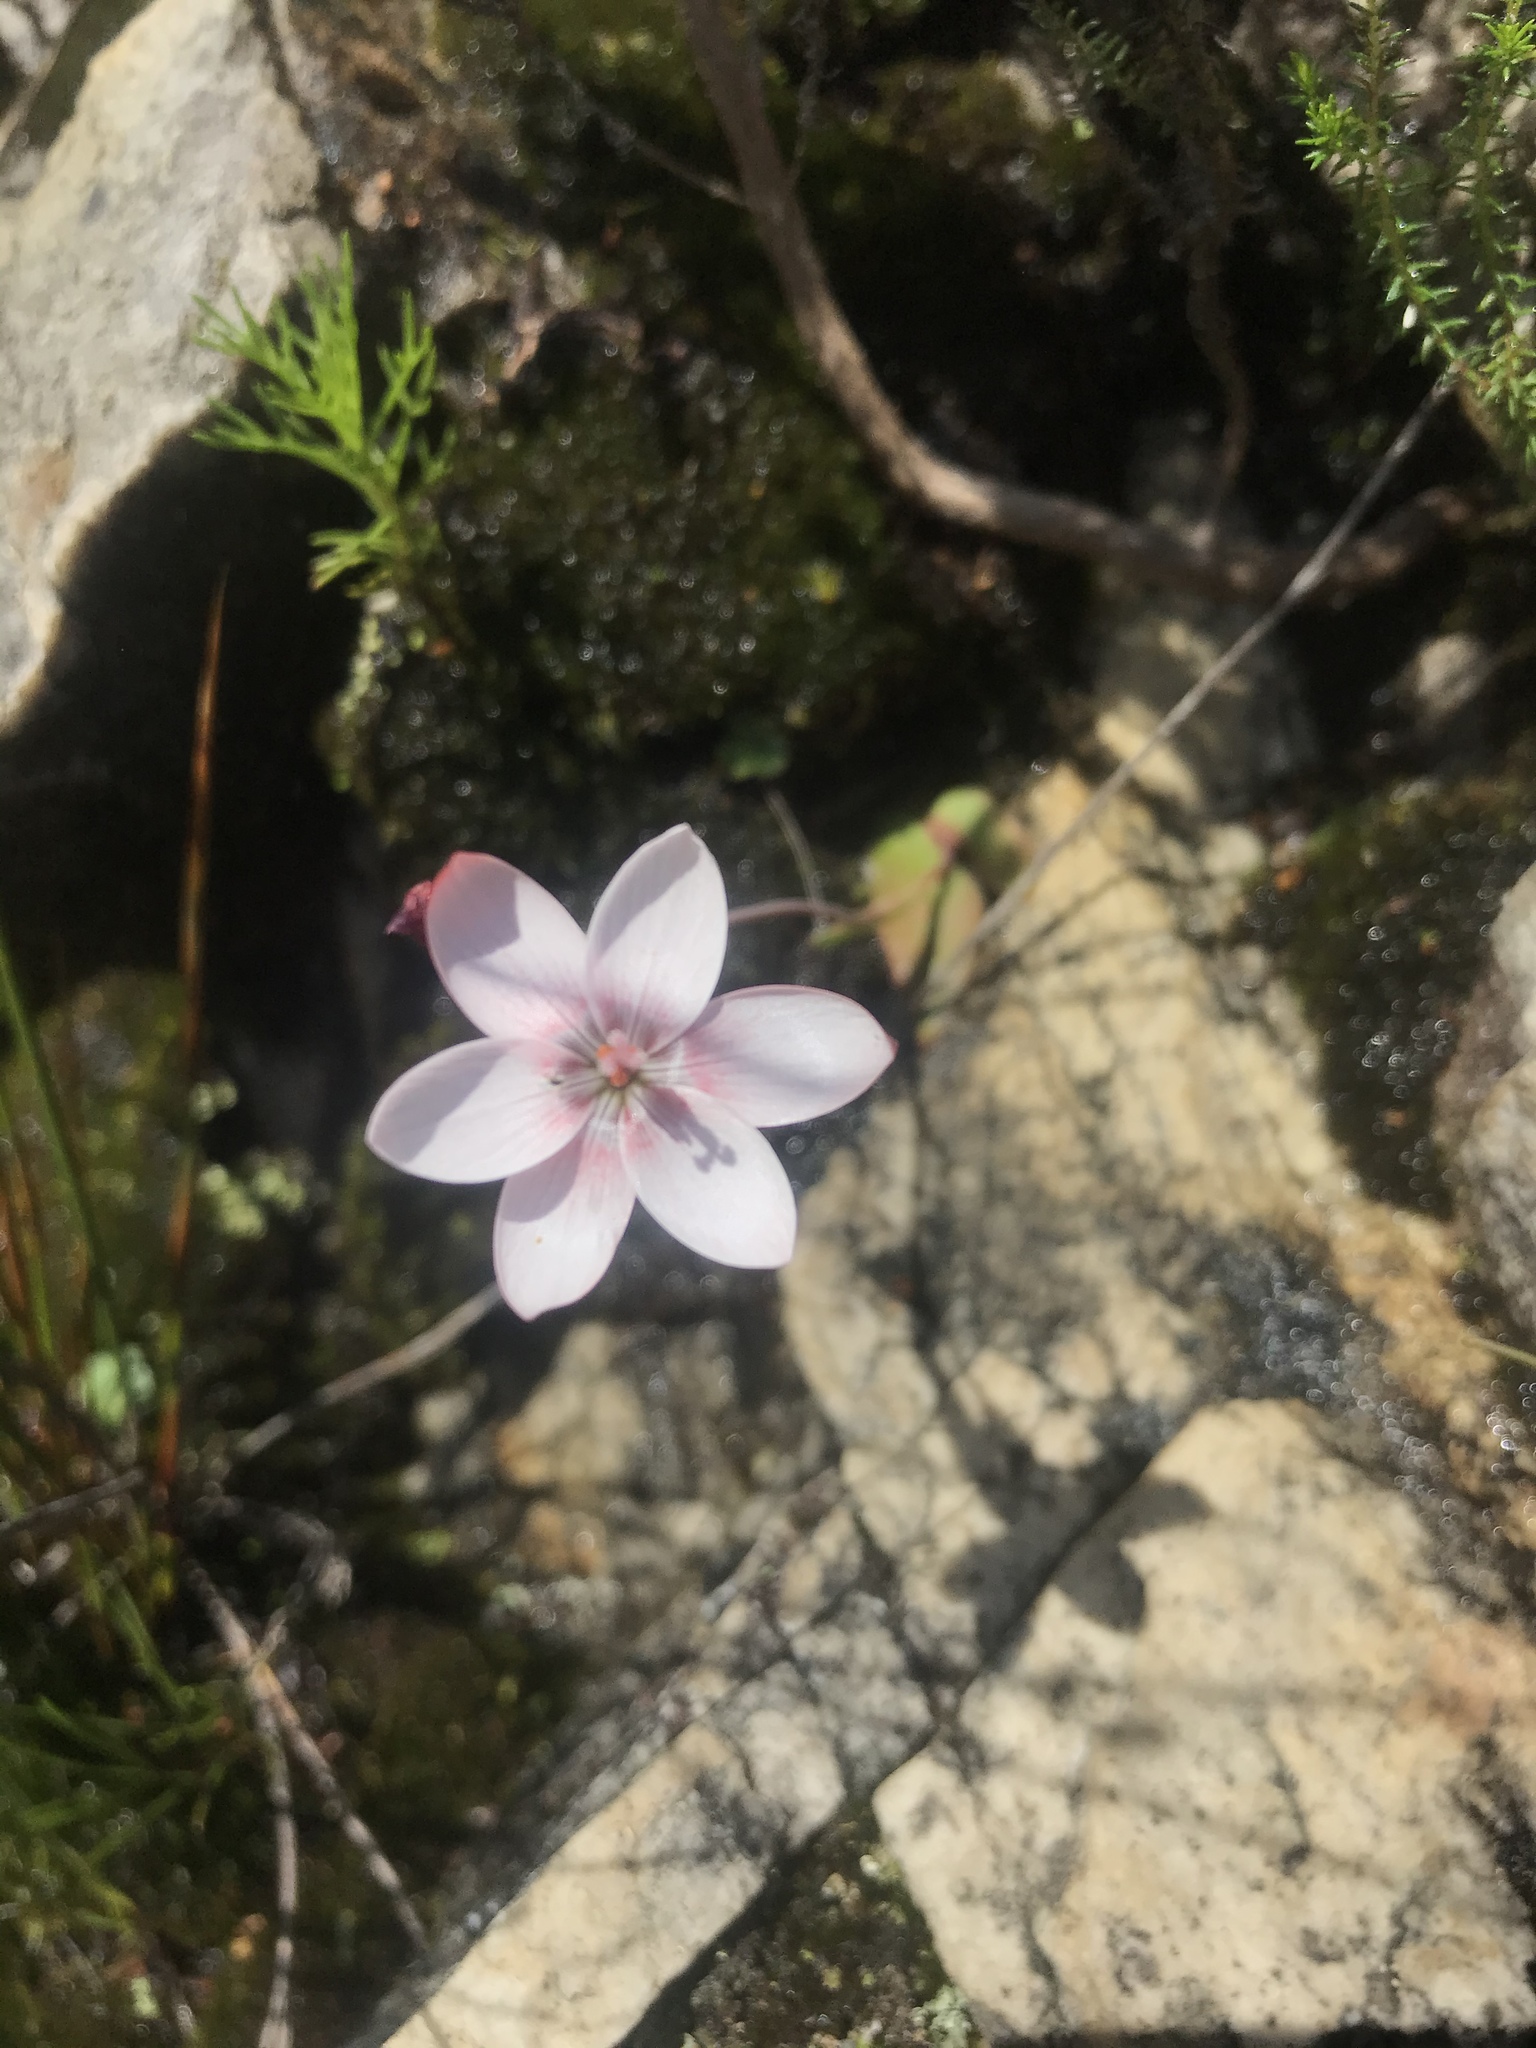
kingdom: Plantae
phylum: Tracheophyta
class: Liliopsida
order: Asparagales
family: Iridaceae
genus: Geissorhiza
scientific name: Geissorhiza ovata
